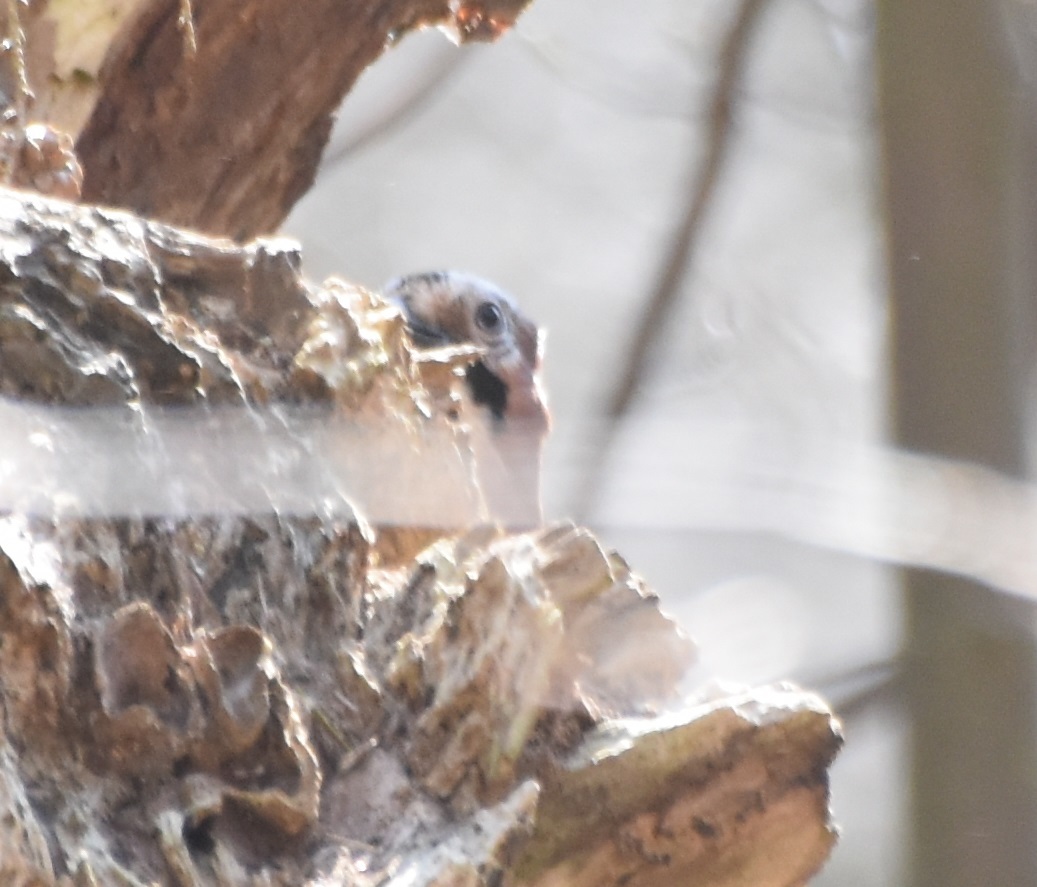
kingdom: Animalia
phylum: Chordata
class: Aves
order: Passeriformes
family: Corvidae
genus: Garrulus
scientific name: Garrulus glandarius
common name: Eurasian jay
